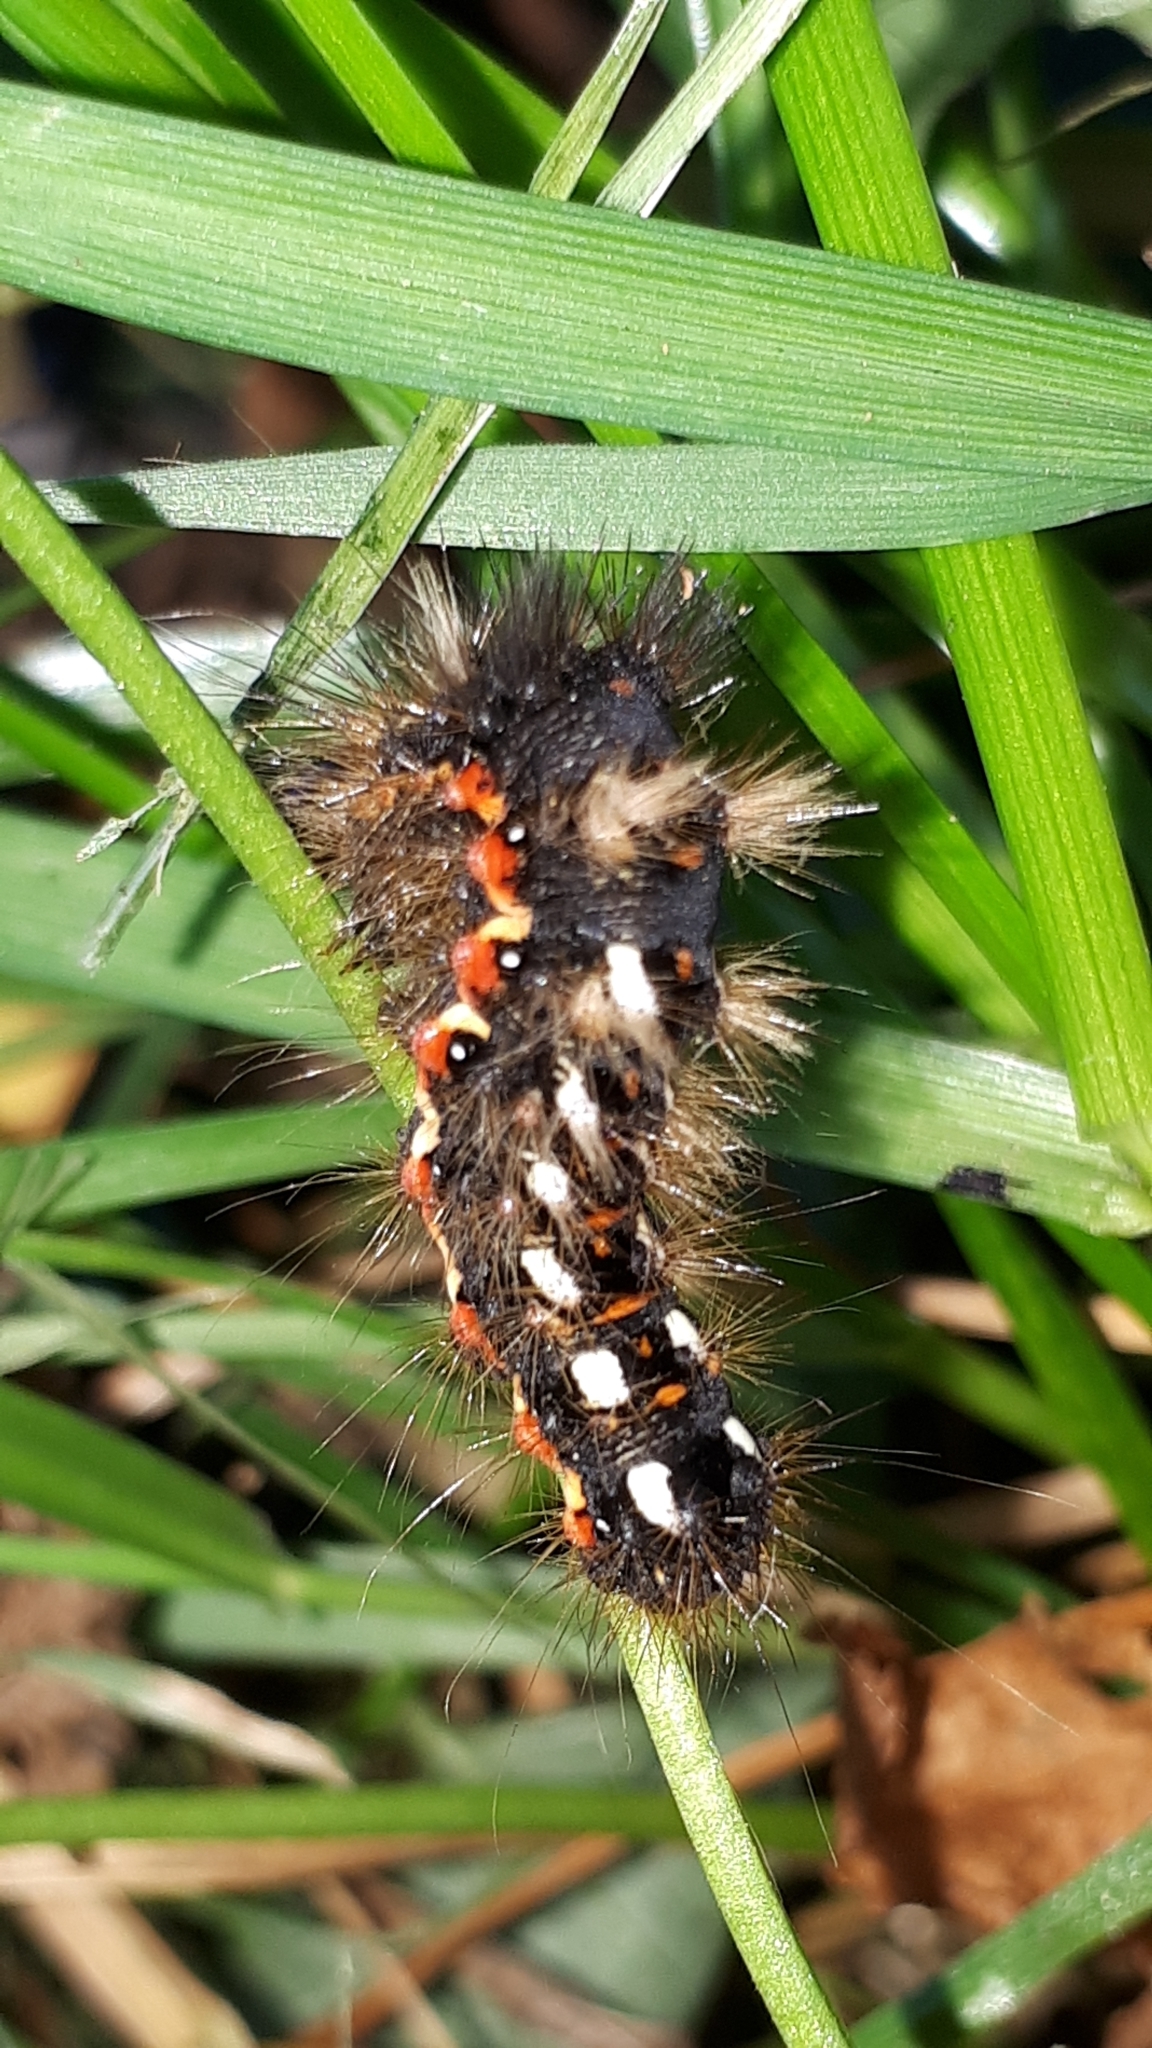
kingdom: Animalia
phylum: Arthropoda
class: Insecta
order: Lepidoptera
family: Noctuidae
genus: Acronicta
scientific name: Acronicta rumicis
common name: Knot grass
